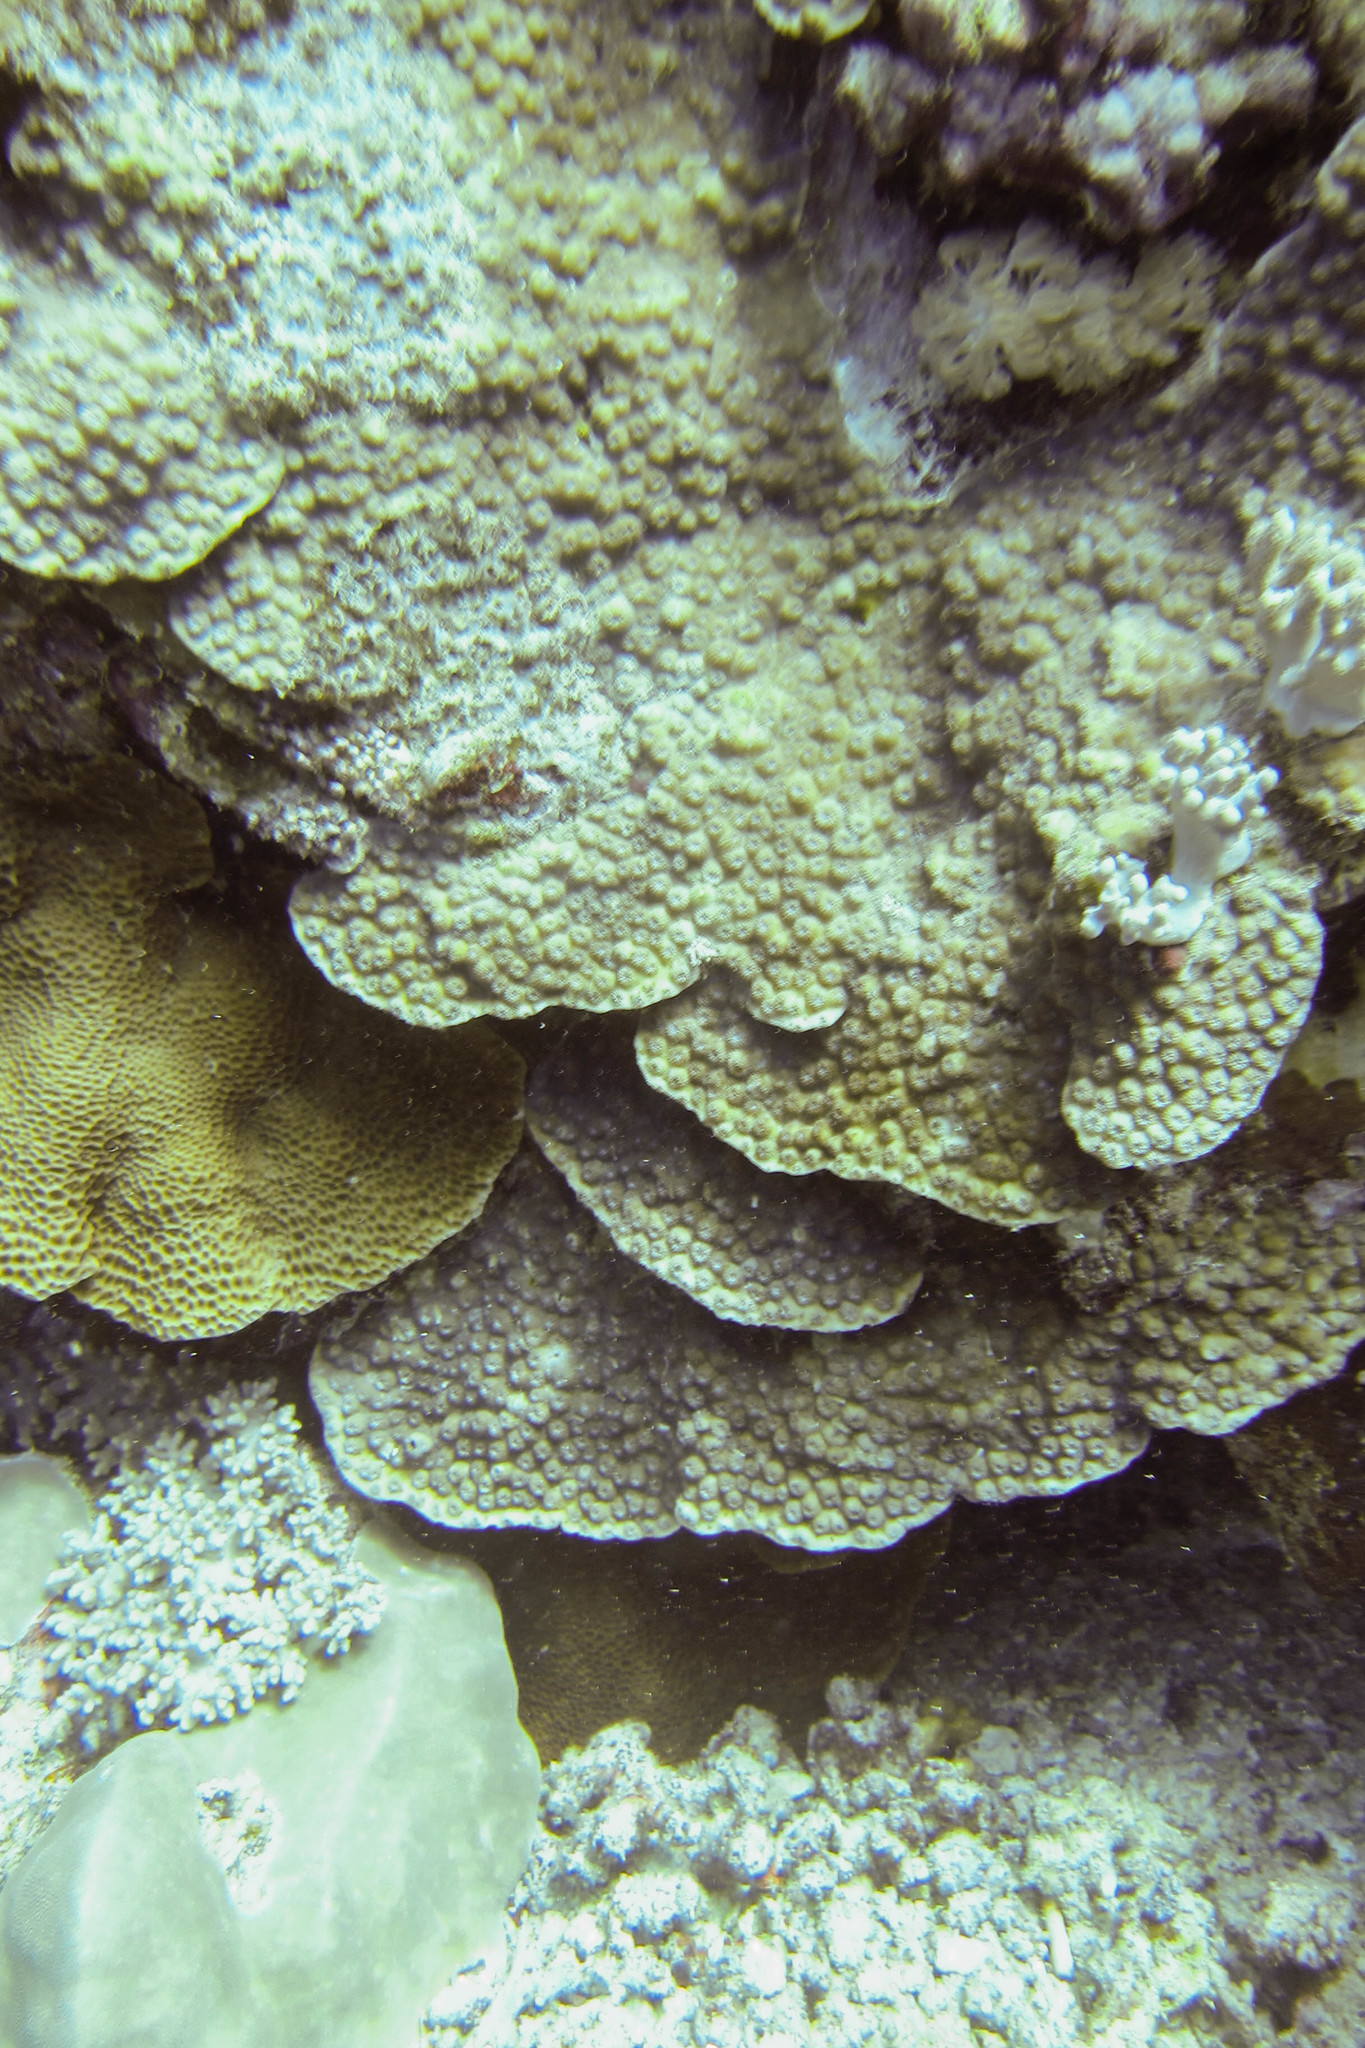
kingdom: Animalia
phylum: Cnidaria
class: Anthozoa
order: Scleractinia
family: Agariciidae
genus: Gardineroseris
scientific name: Gardineroseris planulata
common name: Gardiner's coral
